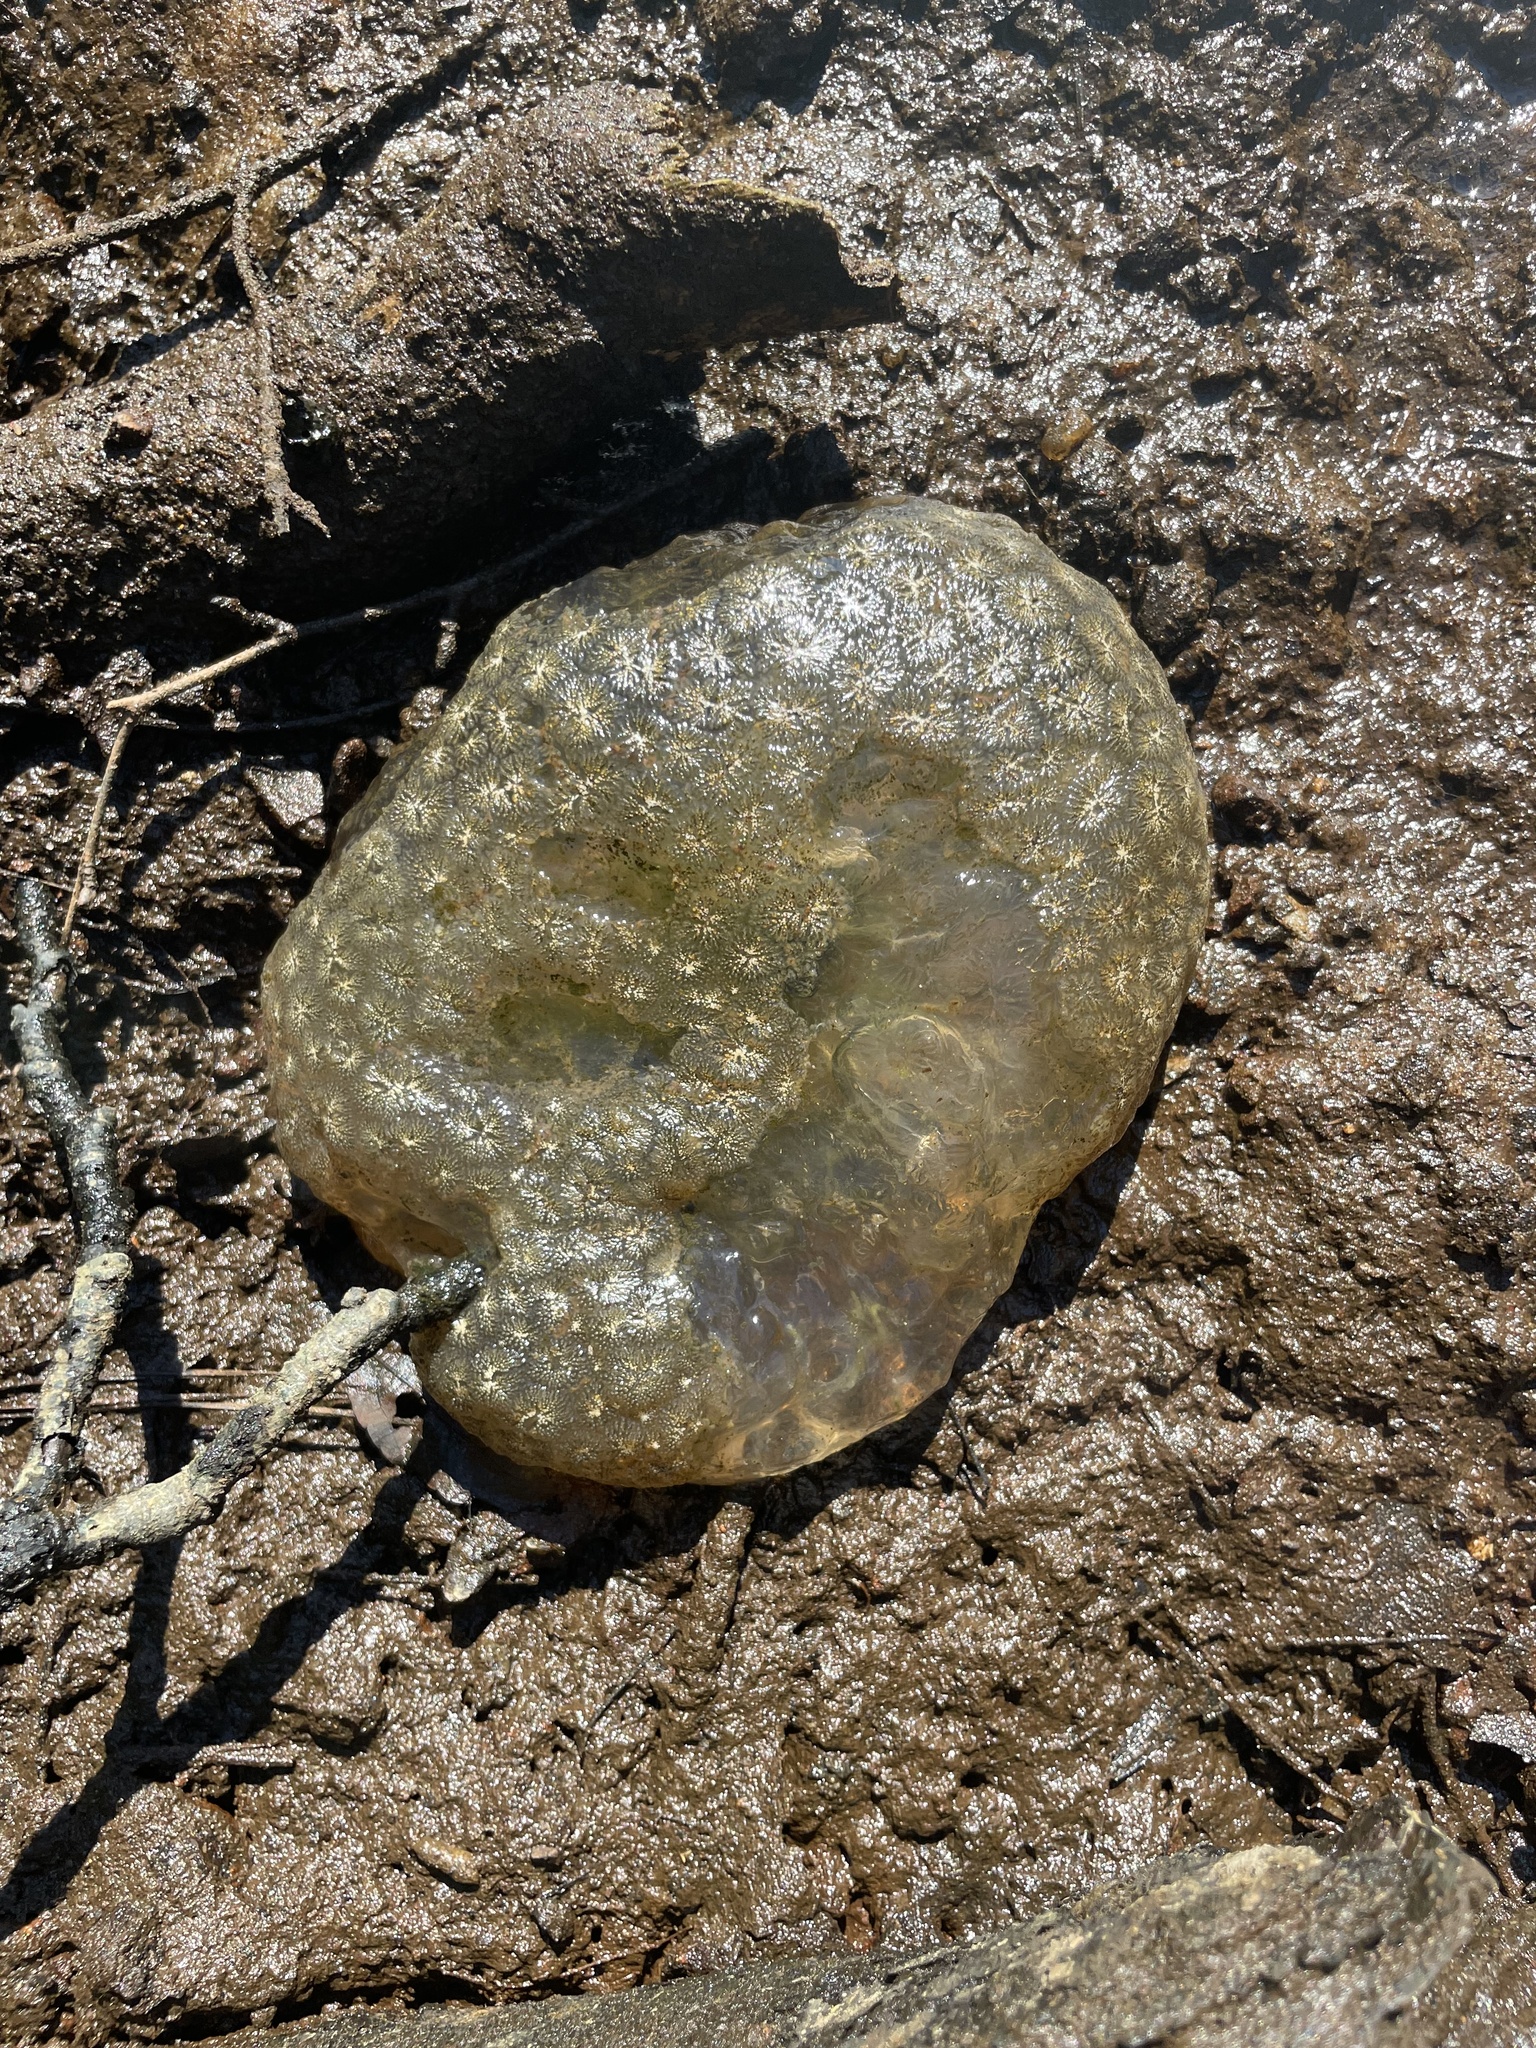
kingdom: Animalia
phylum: Bryozoa
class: Phylactolaemata
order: Plumatellida
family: Pectinatellidae
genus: Pectinatella
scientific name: Pectinatella magnifica
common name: Magnificent bryozoan
